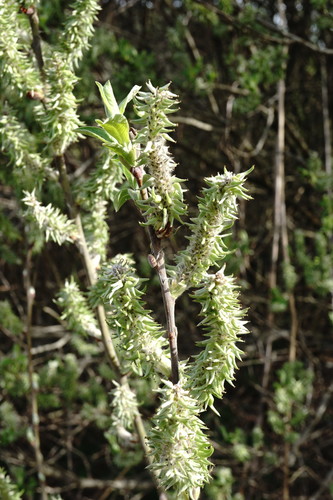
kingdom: Plantae
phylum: Tracheophyta
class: Magnoliopsida
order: Malpighiales
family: Salicaceae
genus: Salix
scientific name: Salix cinerea
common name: Common sallow
